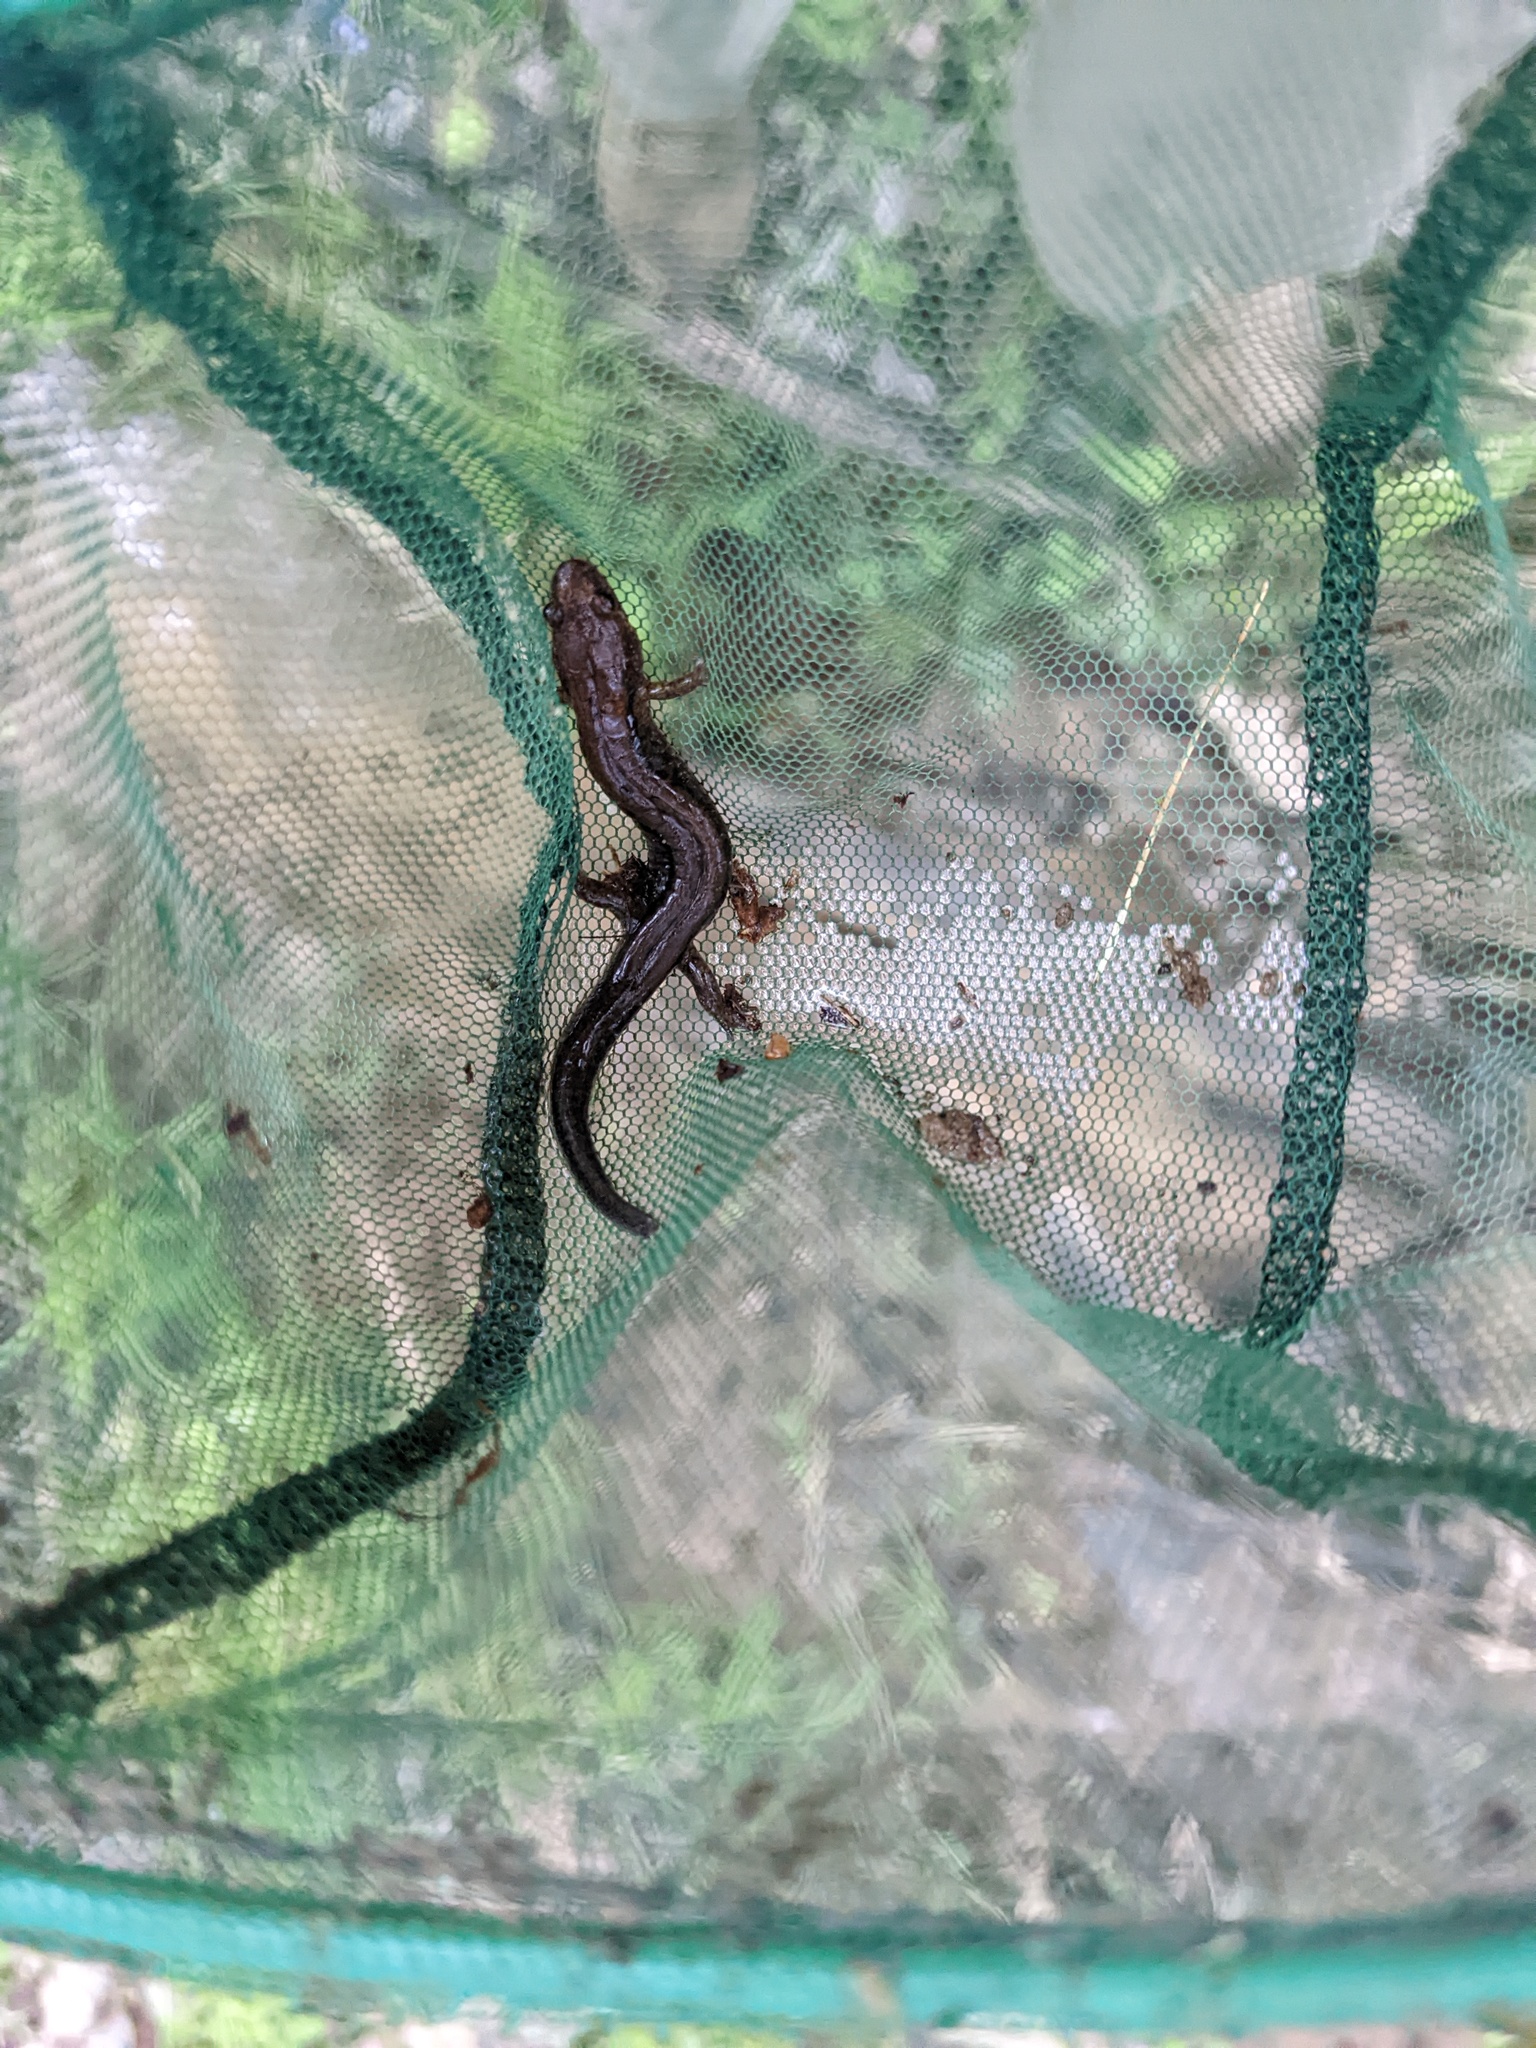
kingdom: Animalia
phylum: Chordata
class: Amphibia
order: Caudata
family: Plethodontidae
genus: Desmognathus
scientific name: Desmognathus ochrophaeus
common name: Allegheny mountain dusky salamander
